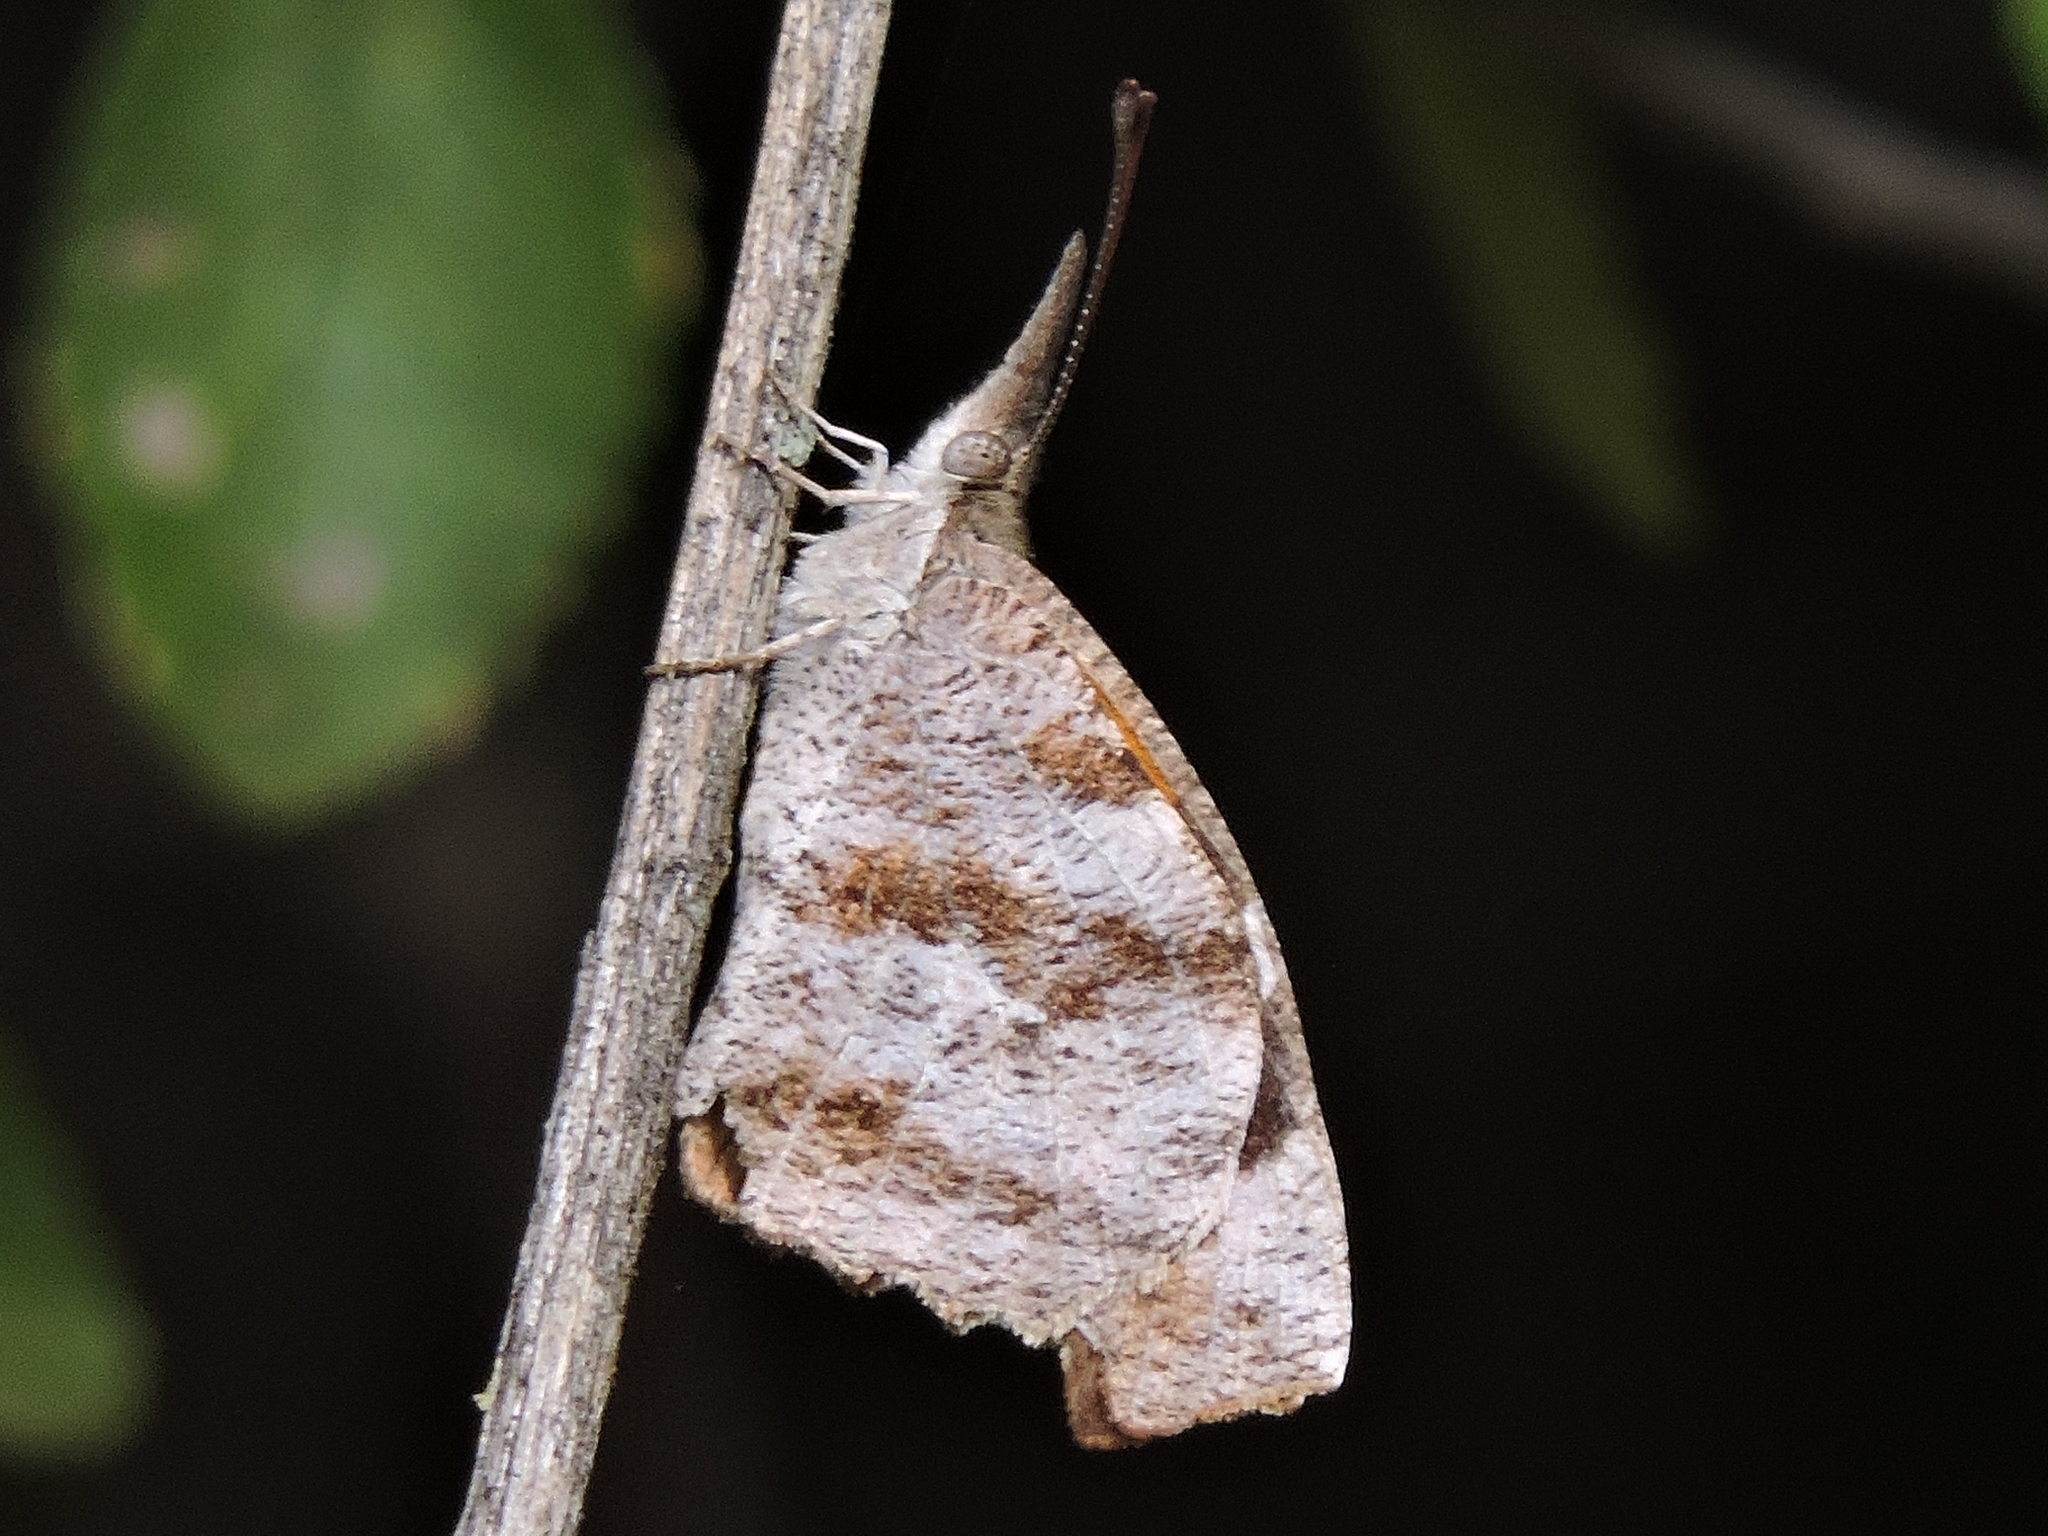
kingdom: Animalia
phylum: Arthropoda
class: Insecta
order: Lepidoptera
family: Nymphalidae
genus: Libytheana
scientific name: Libytheana carinenta
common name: American snout
